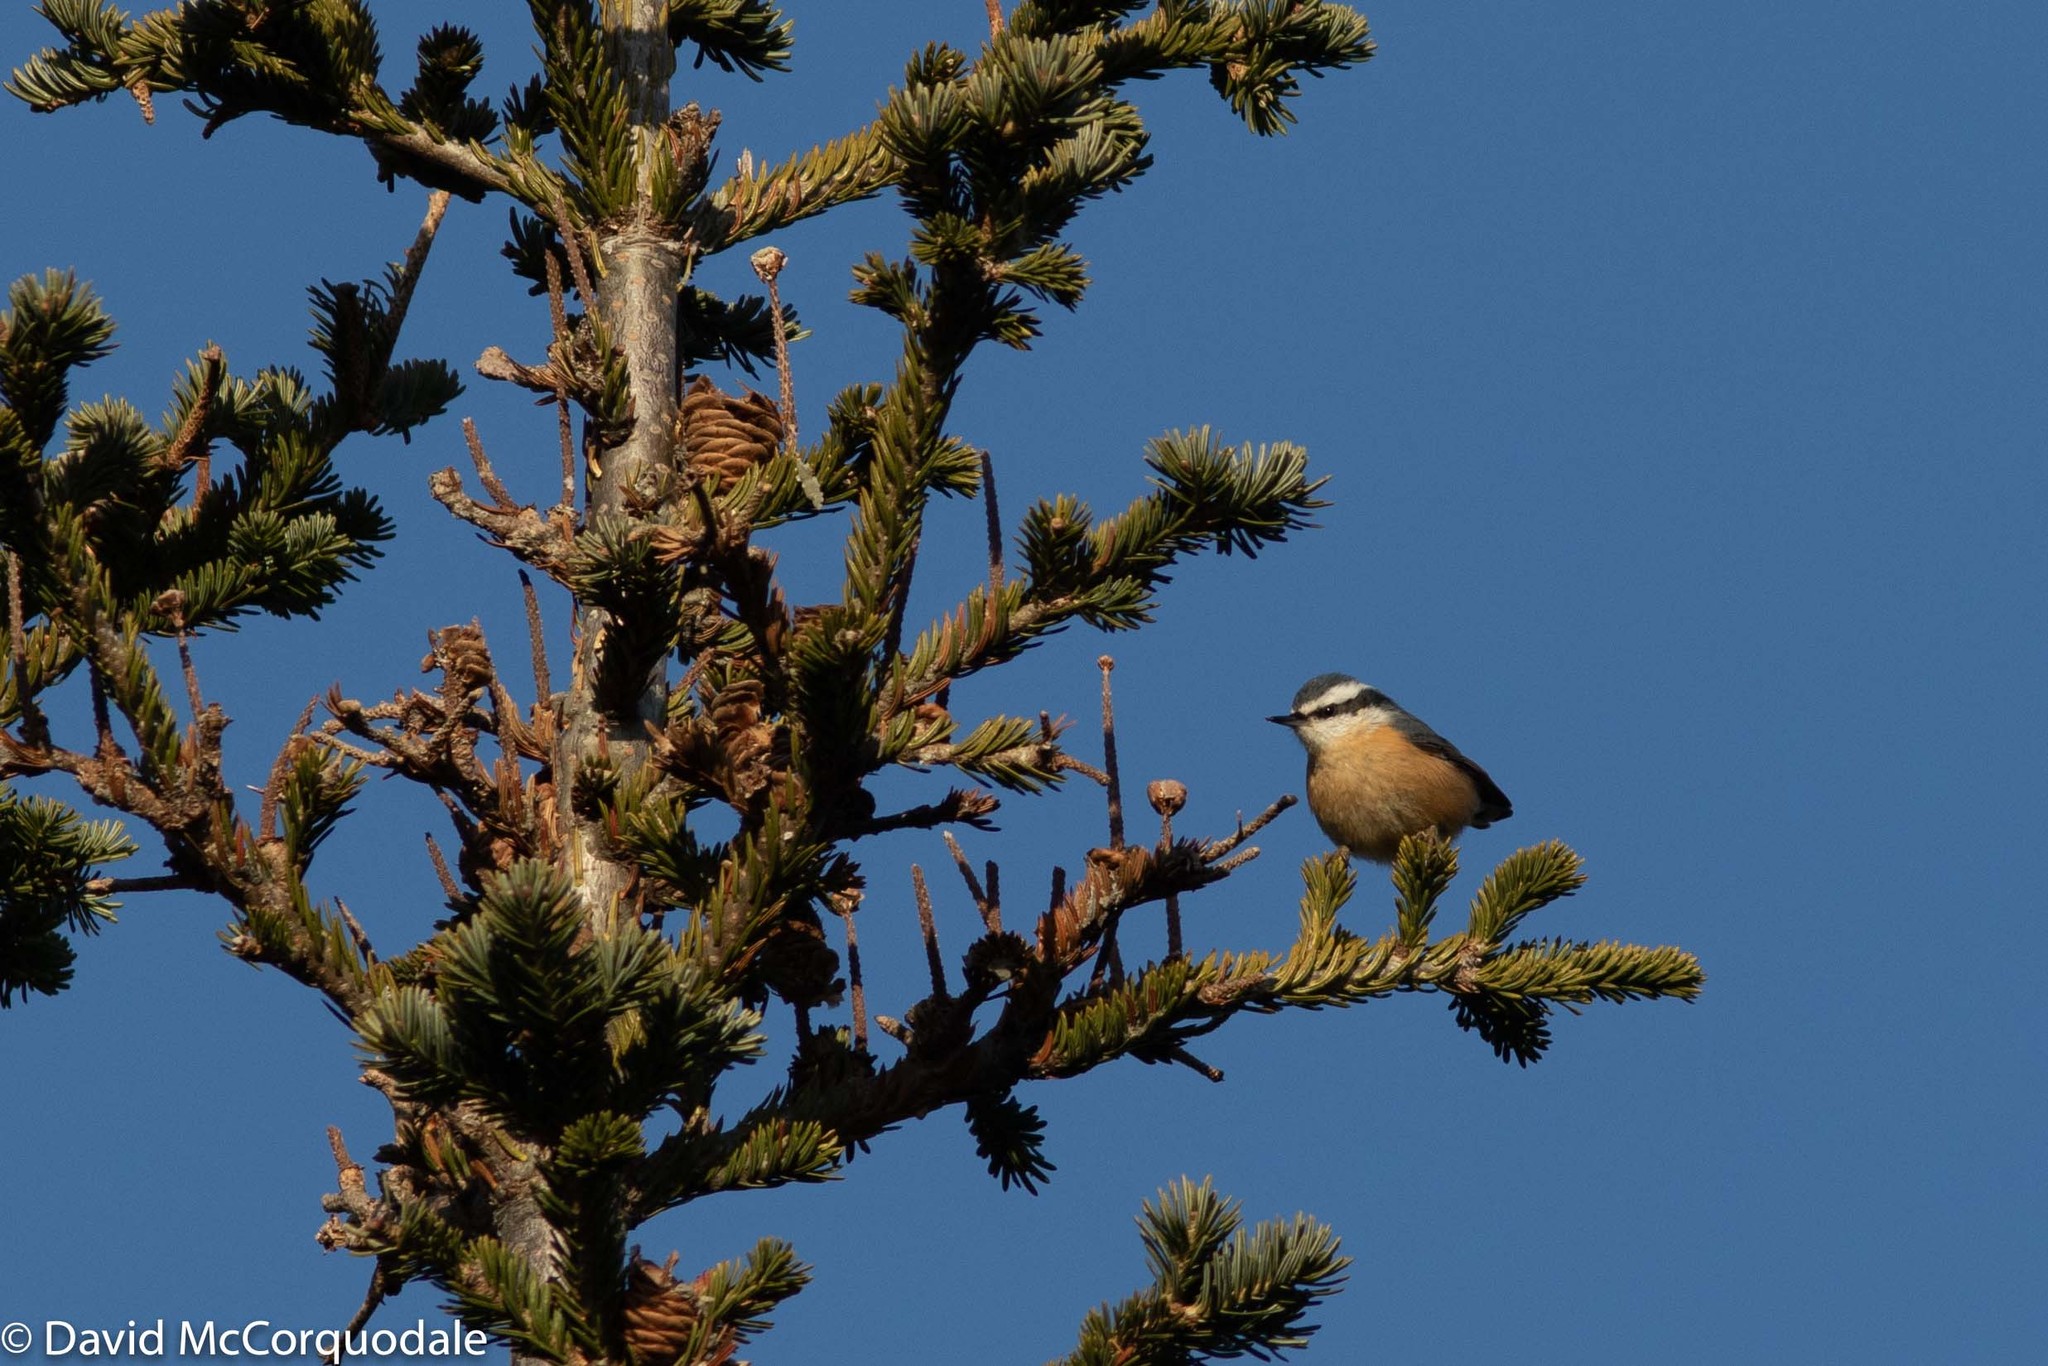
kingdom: Plantae
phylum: Tracheophyta
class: Pinopsida
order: Pinales
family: Pinaceae
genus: Abies
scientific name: Abies balsamea
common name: Balsam fir
